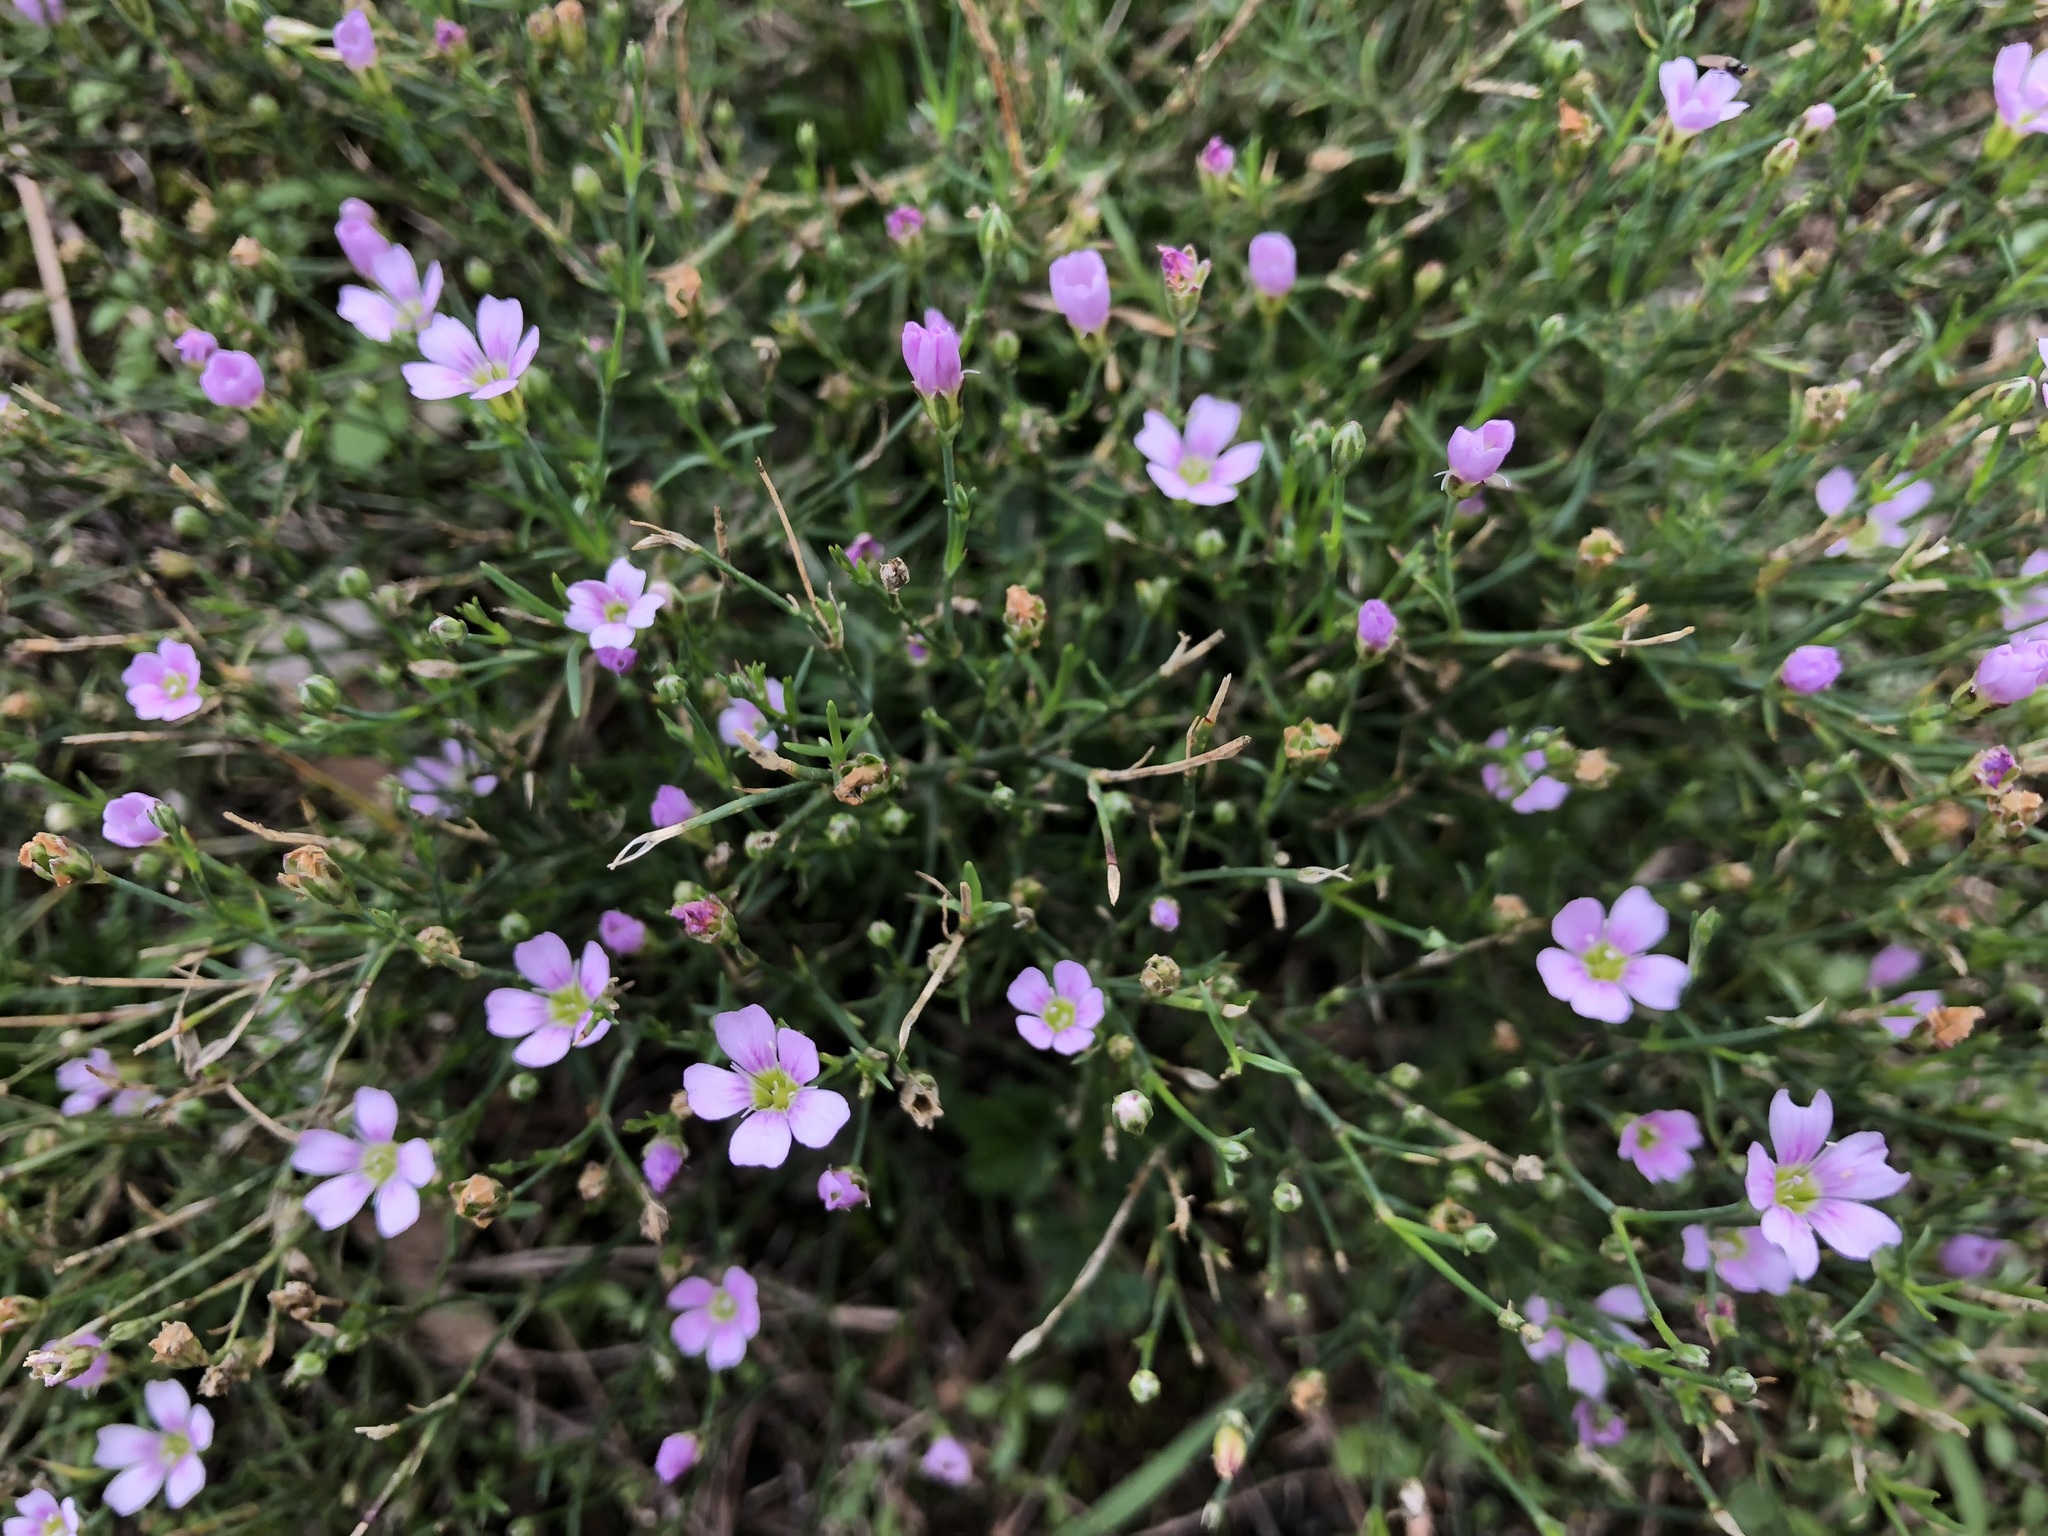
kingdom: Plantae
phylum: Tracheophyta
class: Magnoliopsida
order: Caryophyllales
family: Caryophyllaceae
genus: Petrorhagia
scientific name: Petrorhagia saxifraga
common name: Tunicflower
